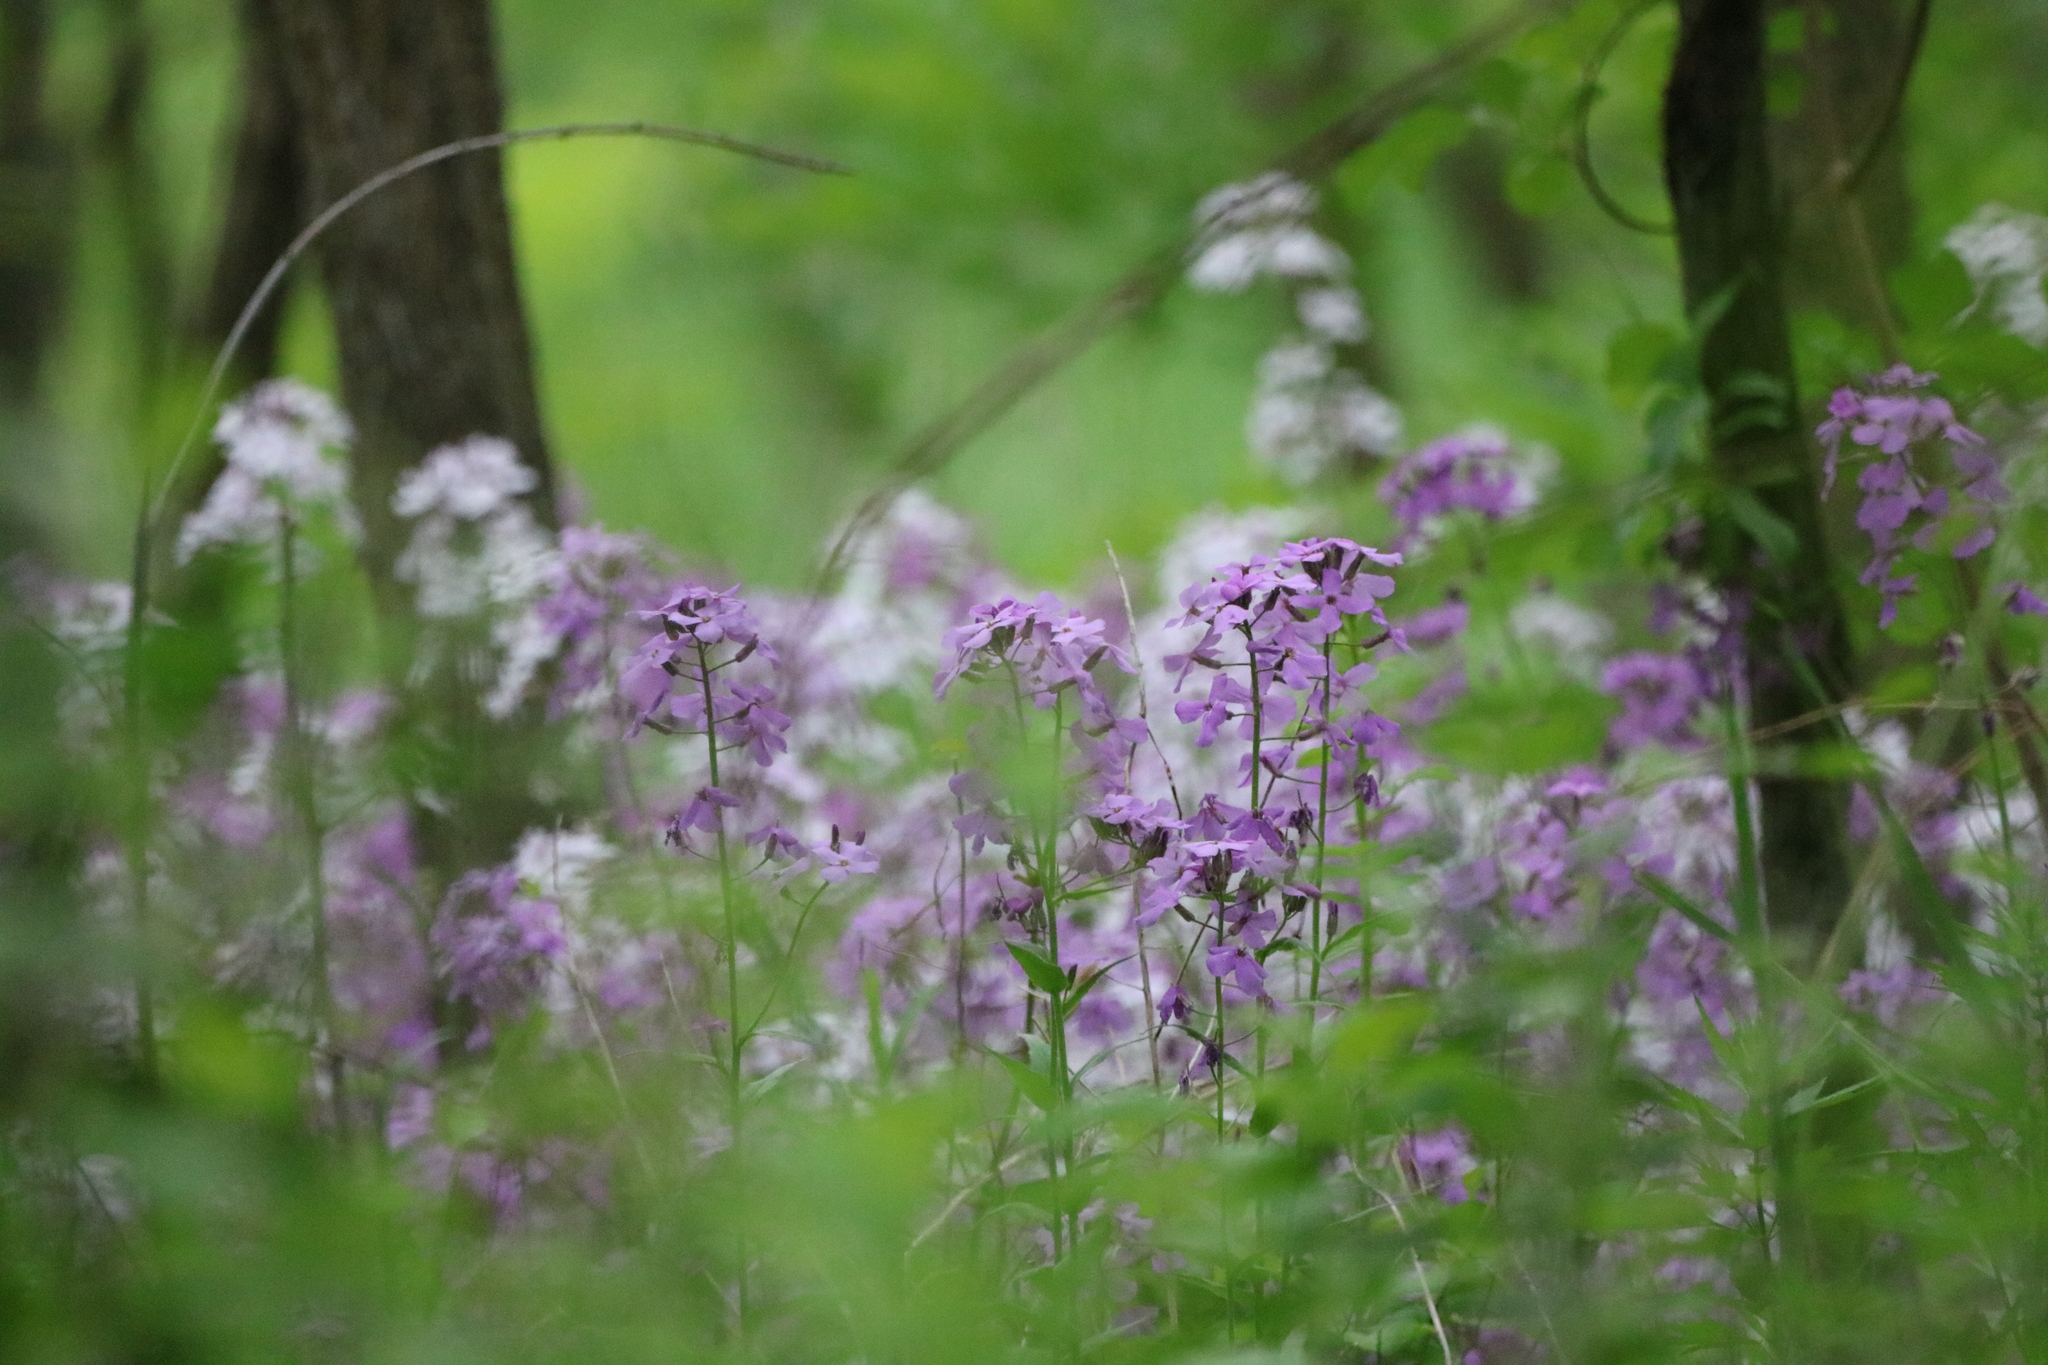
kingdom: Plantae
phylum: Tracheophyta
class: Magnoliopsida
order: Brassicales
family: Brassicaceae
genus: Hesperis
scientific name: Hesperis matronalis
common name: Dame's-violet
